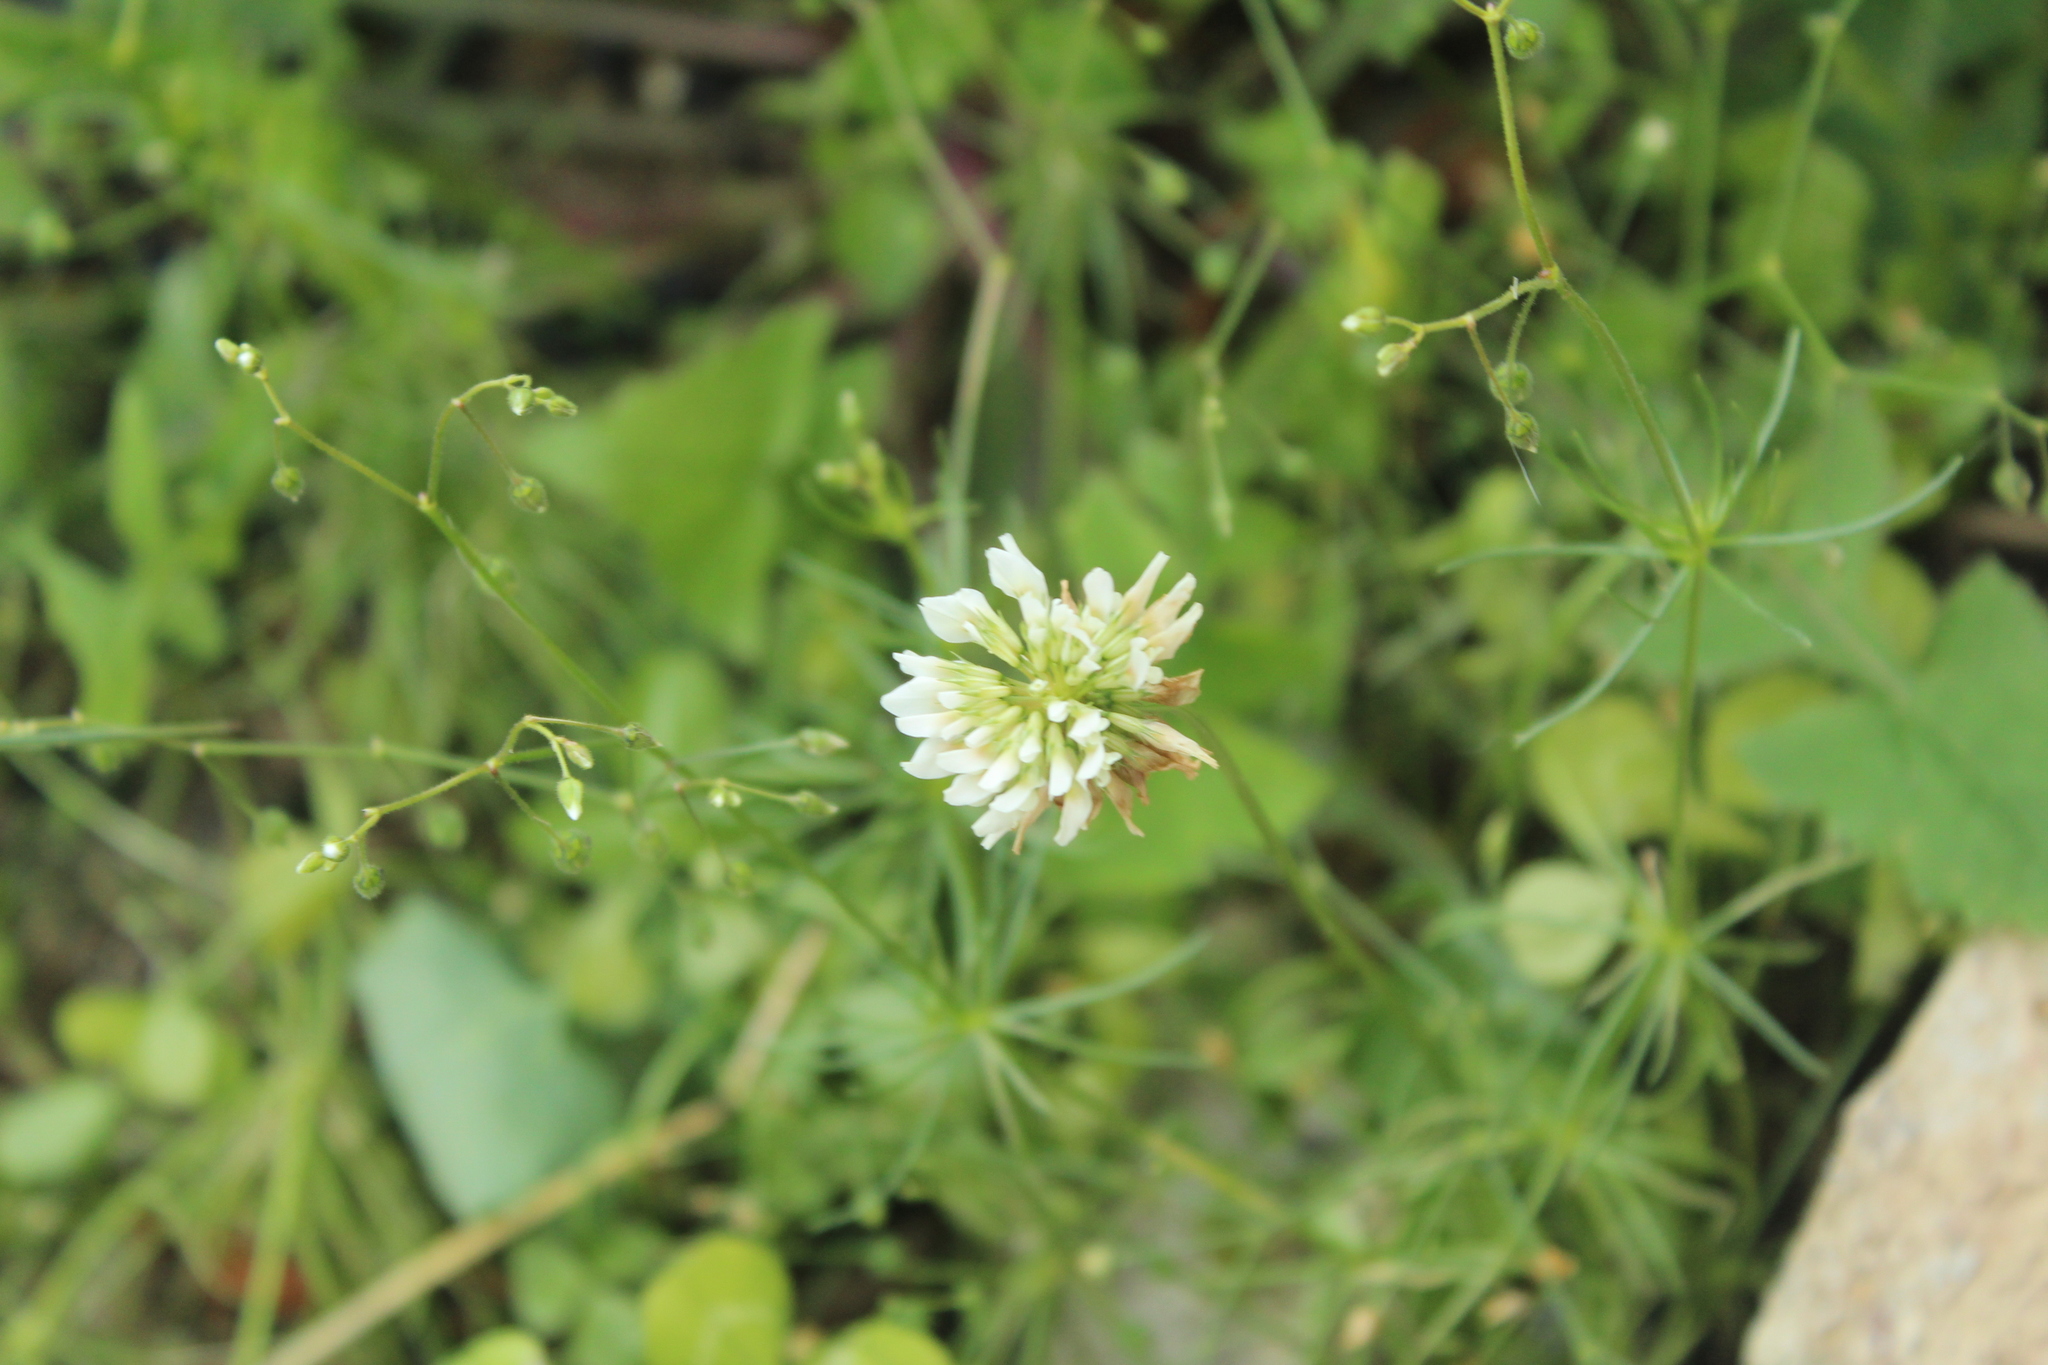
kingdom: Plantae
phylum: Tracheophyta
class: Magnoliopsida
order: Fabales
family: Fabaceae
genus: Trifolium
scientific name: Trifolium repens
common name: White clover
